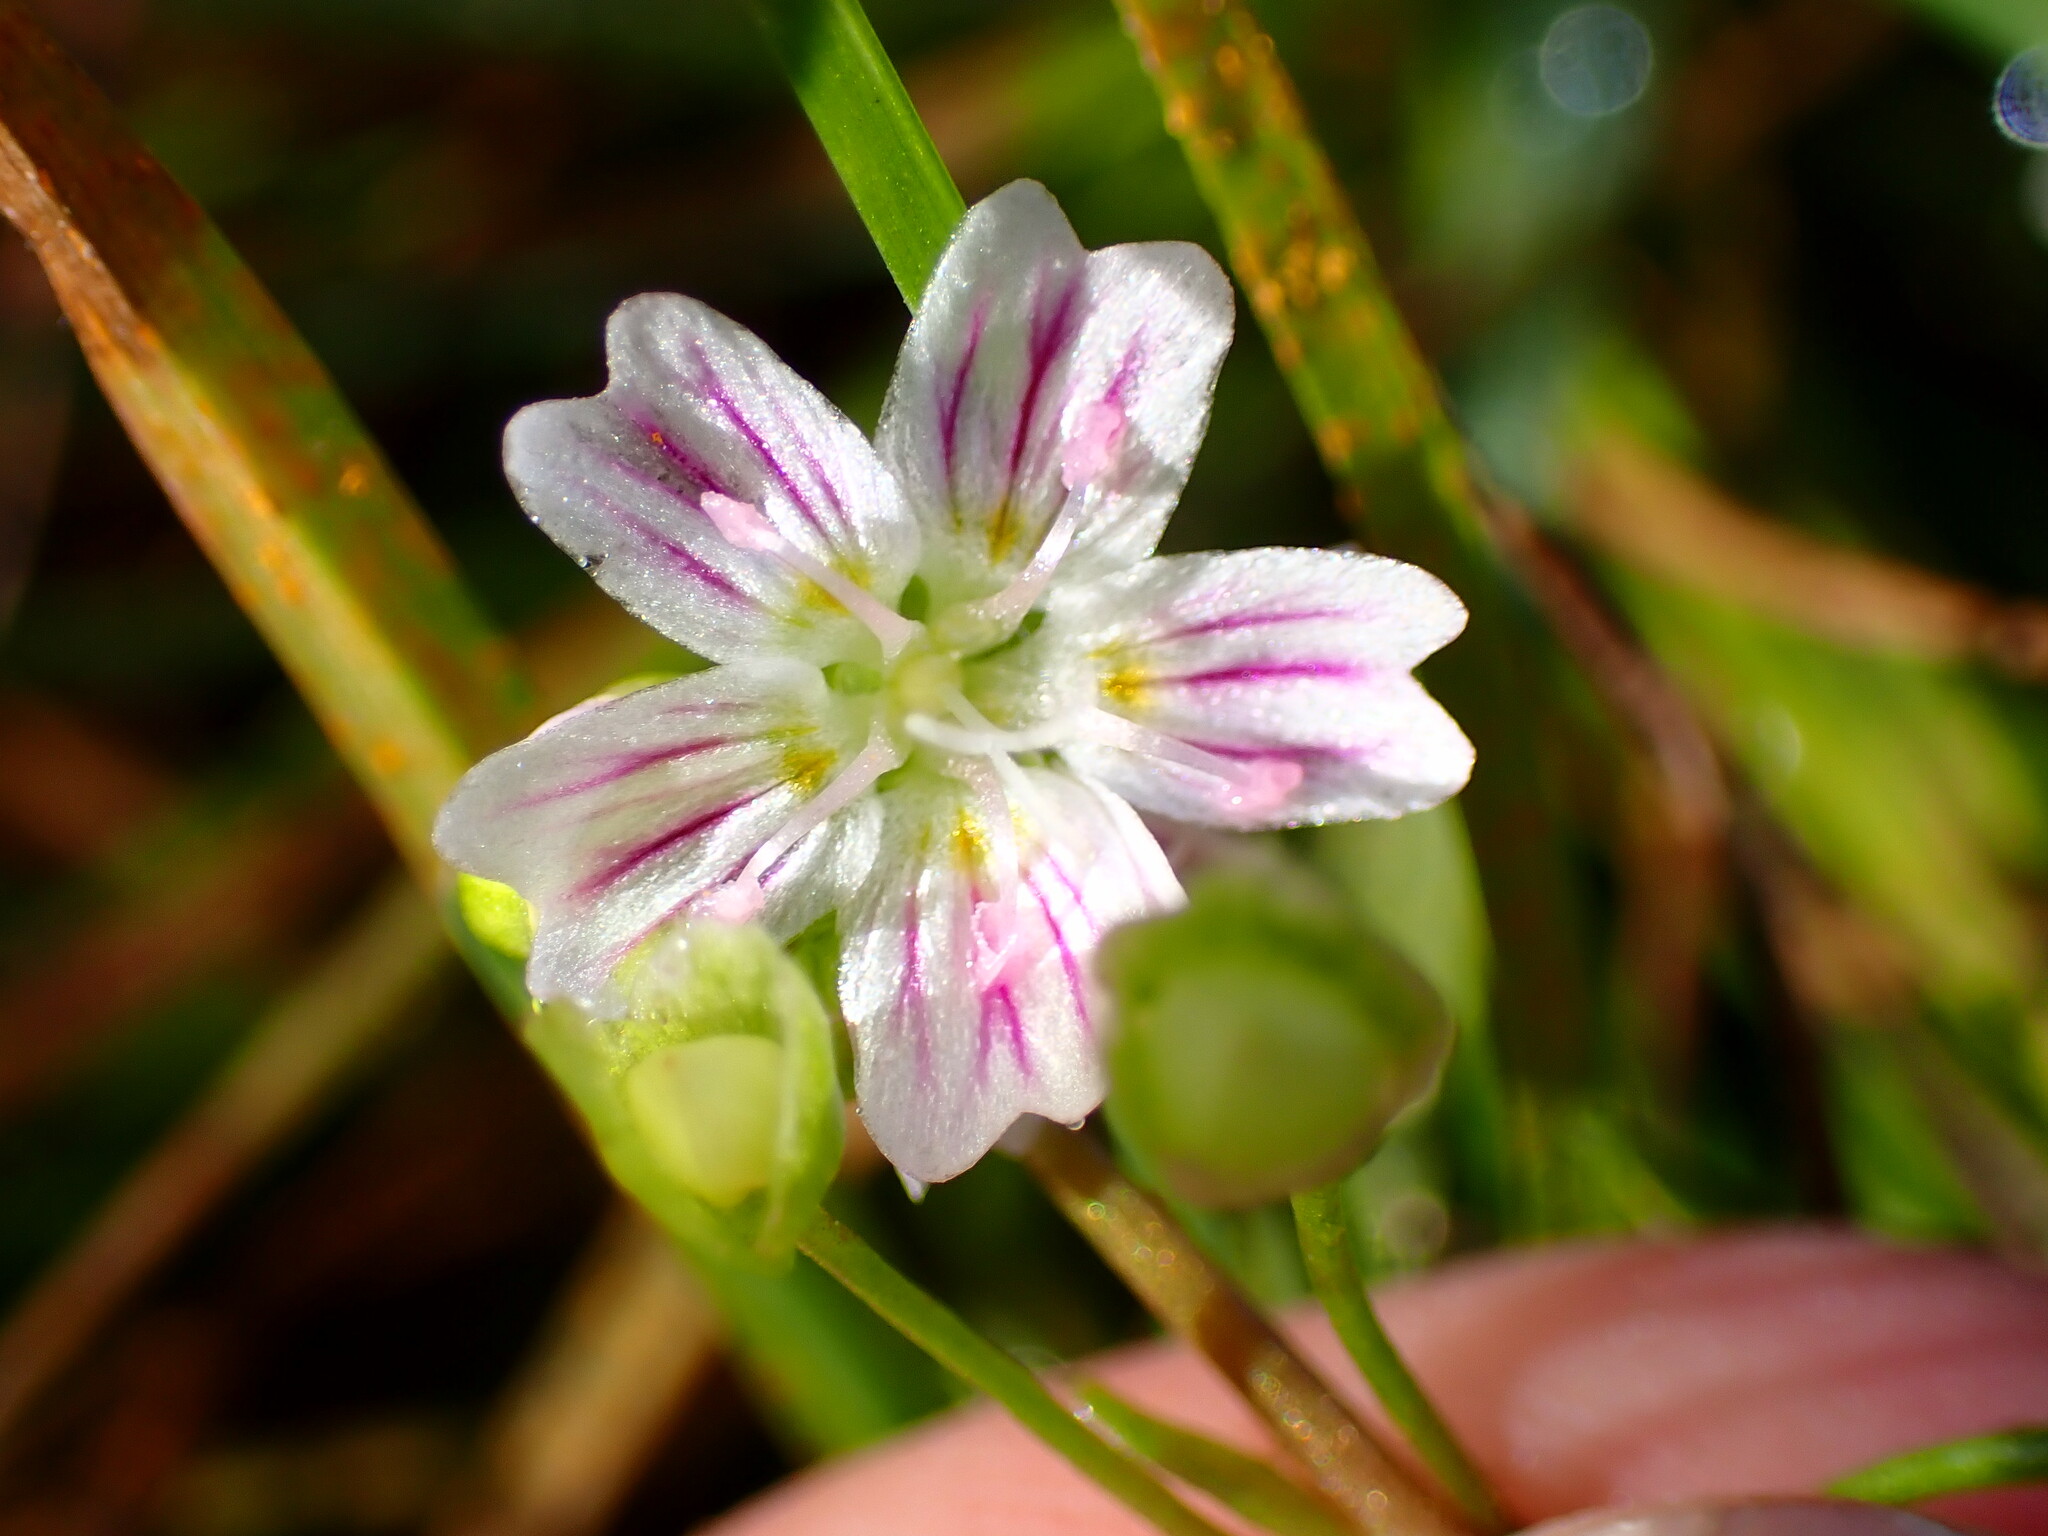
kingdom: Plantae
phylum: Tracheophyta
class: Magnoliopsida
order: Caryophyllales
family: Montiaceae
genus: Claytonia
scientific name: Claytonia sibirica
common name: Pink purslane
